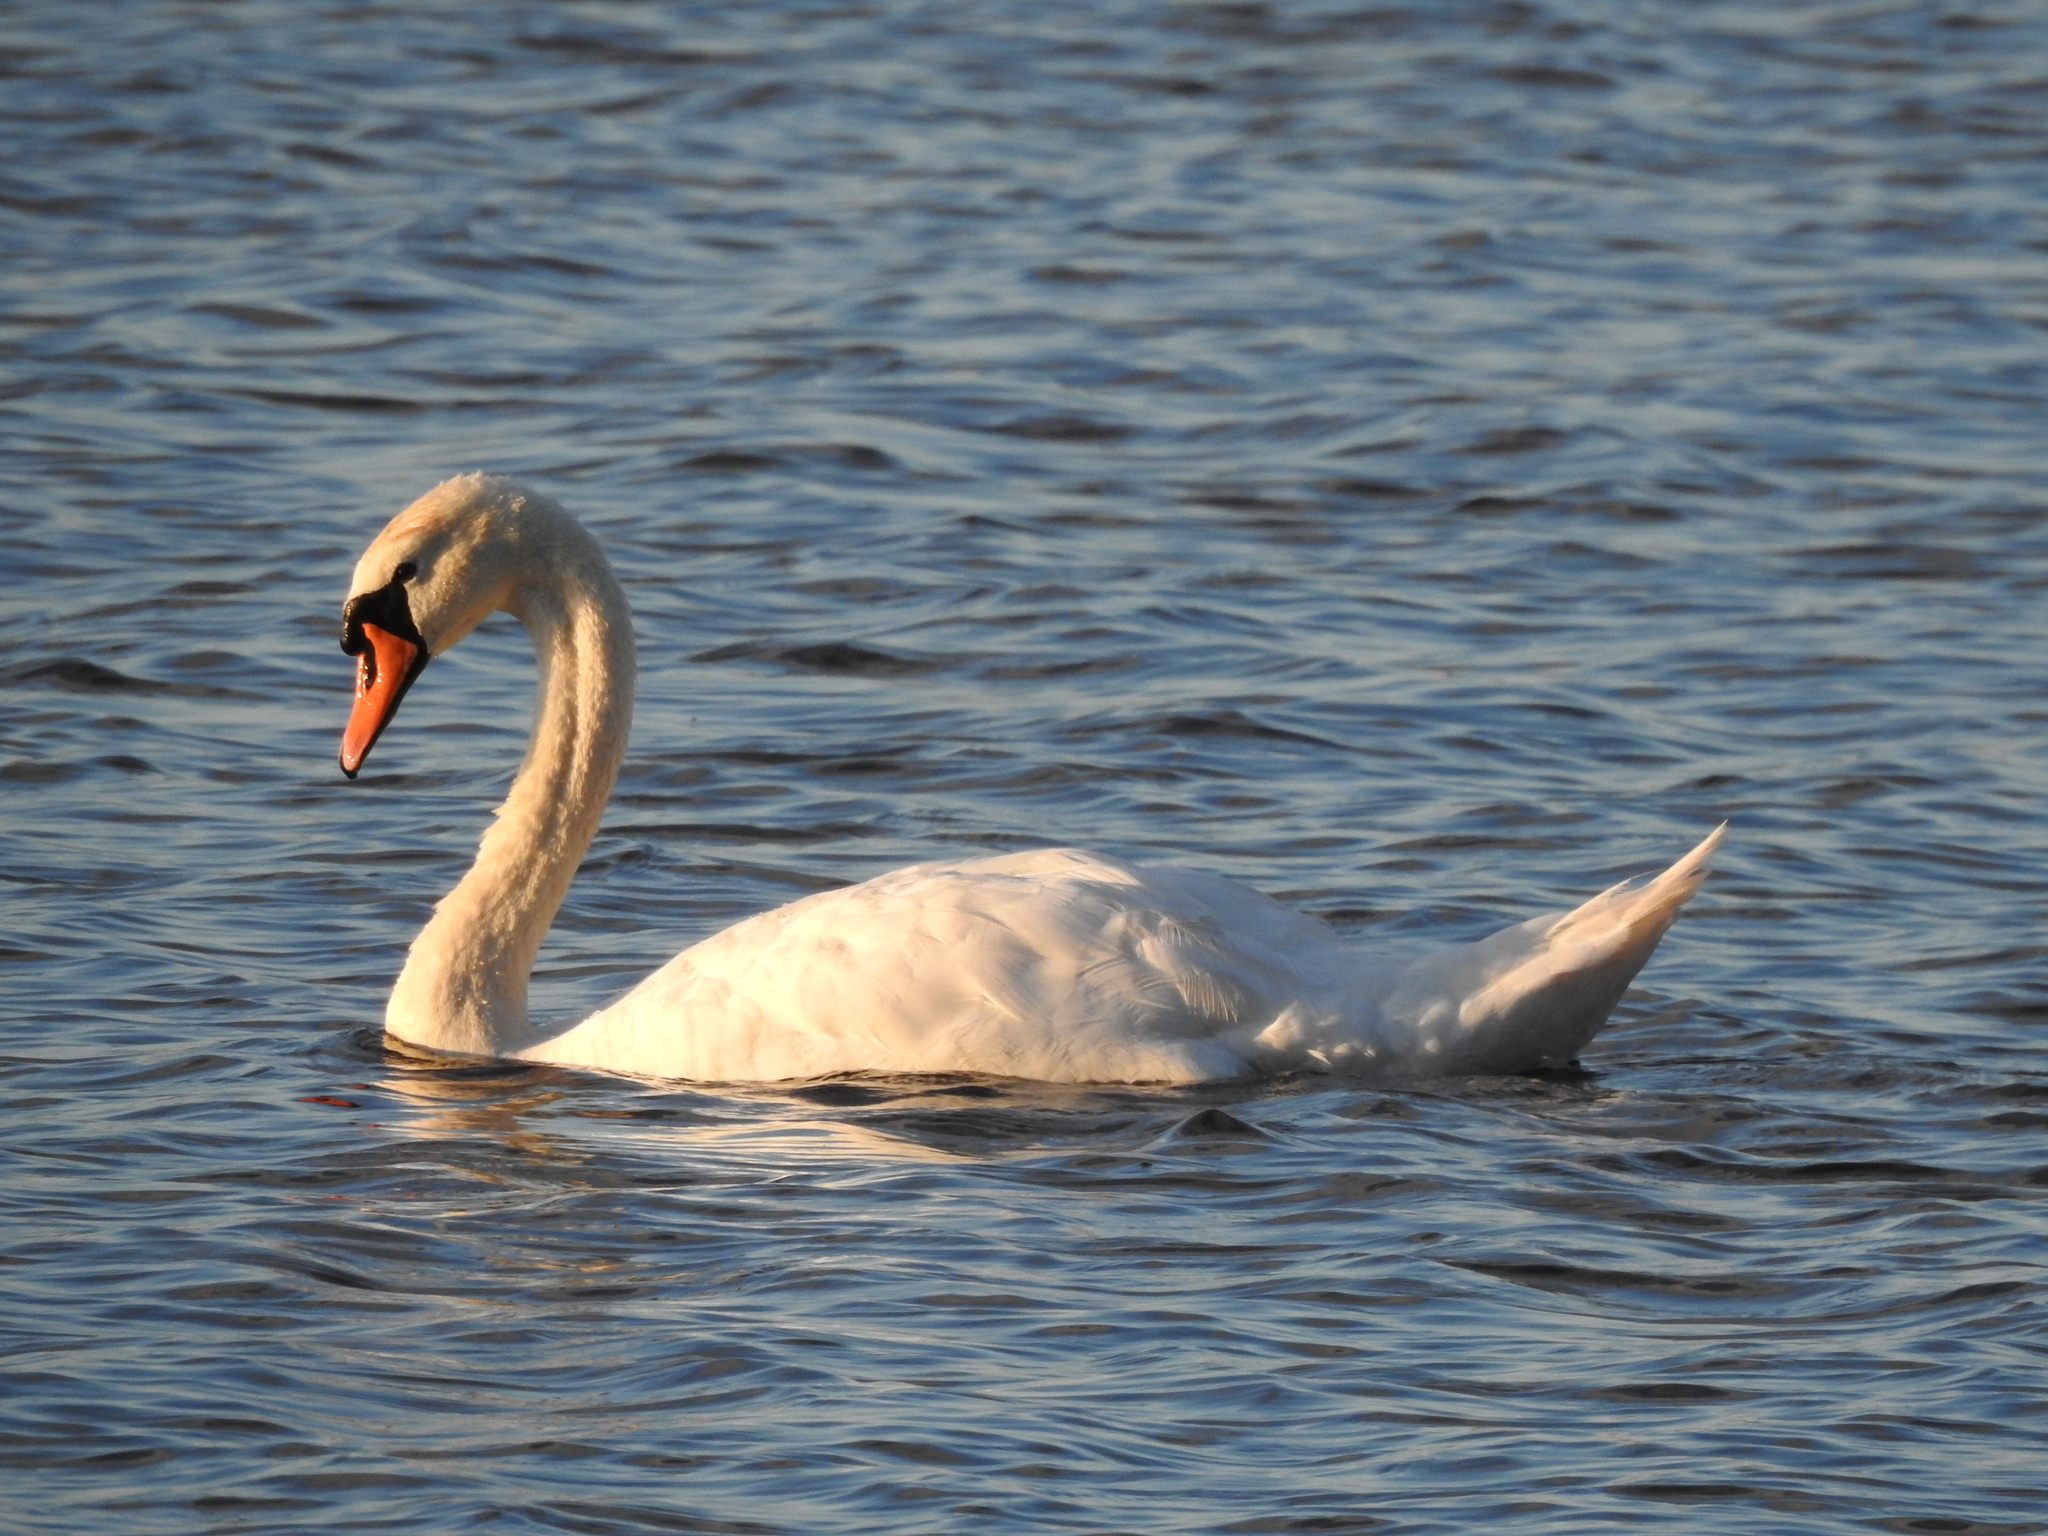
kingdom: Animalia
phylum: Chordata
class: Aves
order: Anseriformes
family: Anatidae
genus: Cygnus
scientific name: Cygnus olor
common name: Mute swan
